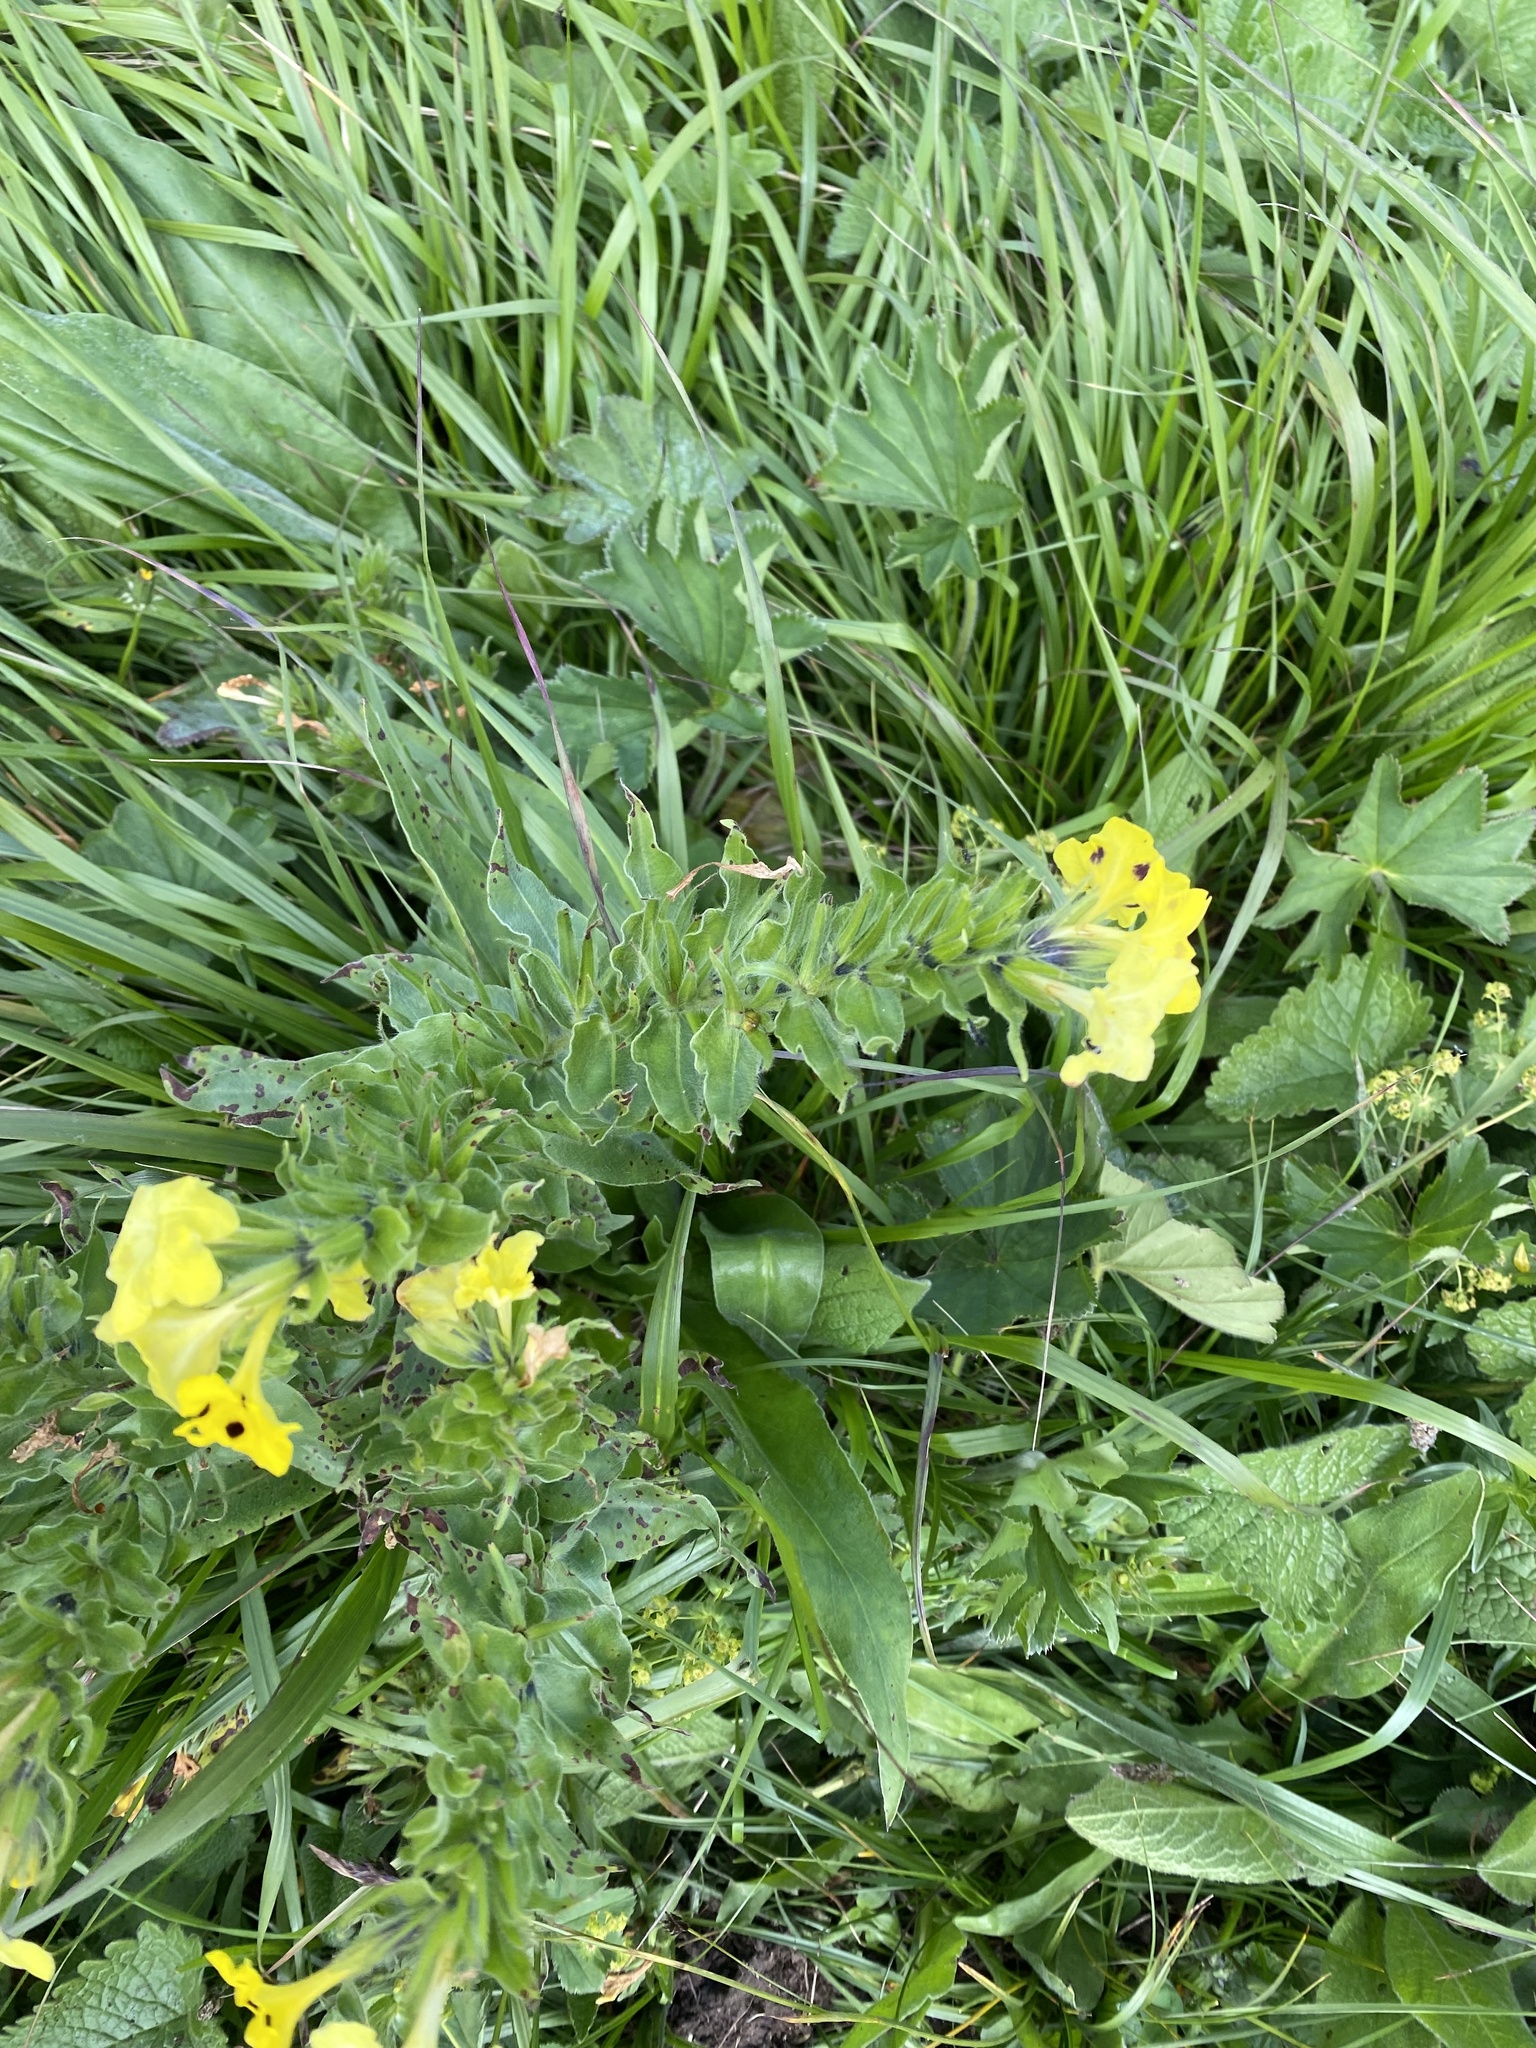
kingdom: Plantae
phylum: Tracheophyta
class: Magnoliopsida
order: Boraginales
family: Boraginaceae
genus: Huynhia
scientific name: Huynhia pulchra
